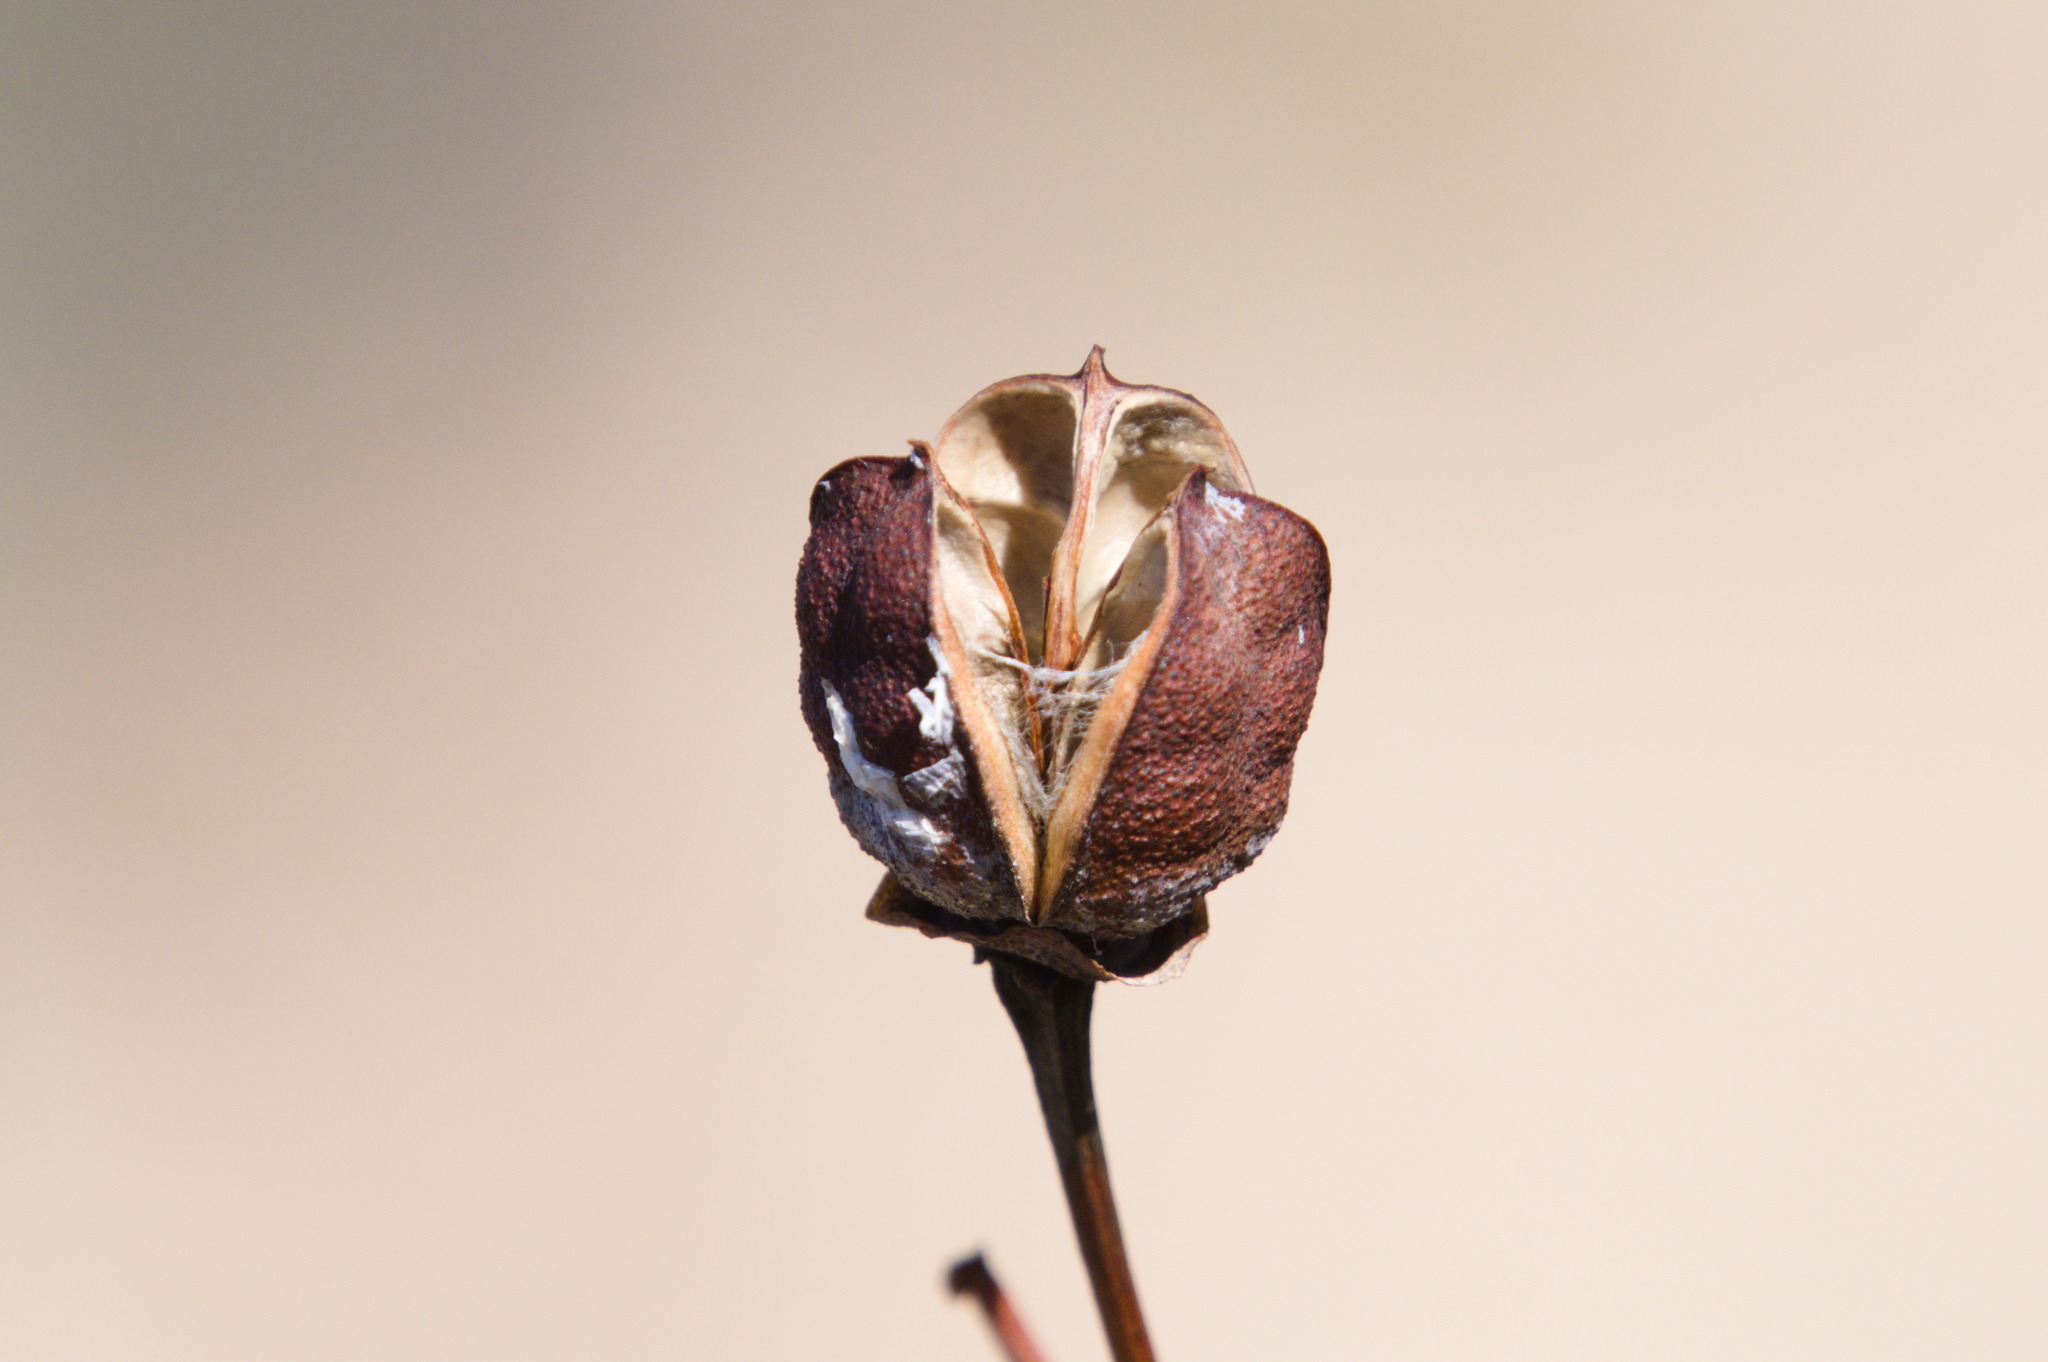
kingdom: Plantae
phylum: Tracheophyta
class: Magnoliopsida
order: Malvales
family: Malvaceae
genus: Gossypium
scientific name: Gossypium thurberi
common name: Desert cotton
